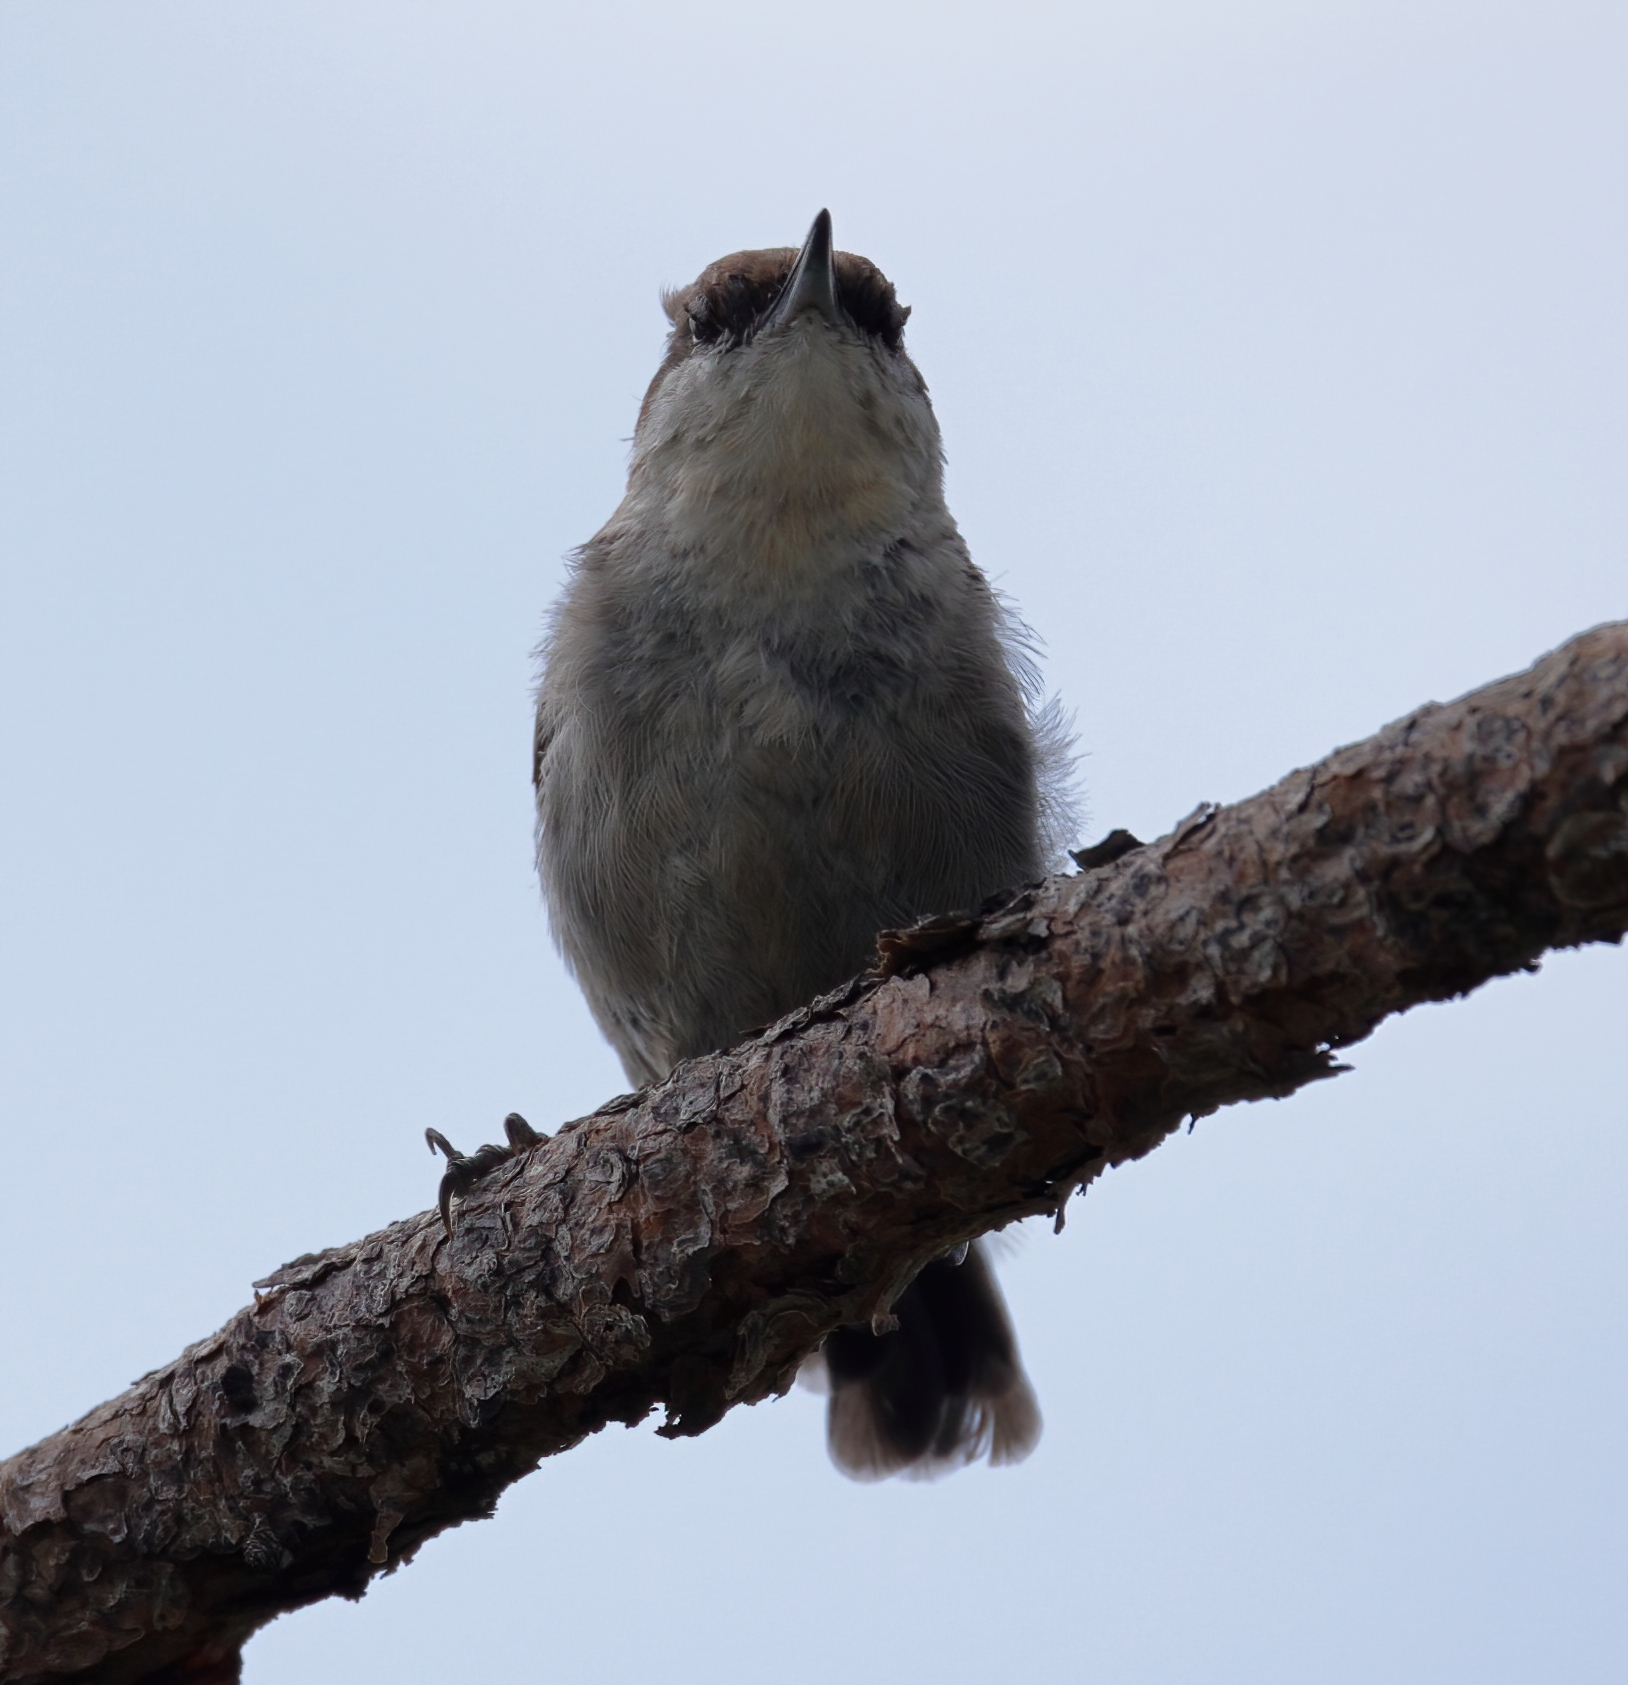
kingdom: Animalia
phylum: Chordata
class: Aves
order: Passeriformes
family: Sittidae
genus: Sitta
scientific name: Sitta pusilla
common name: Brown-headed nuthatch
